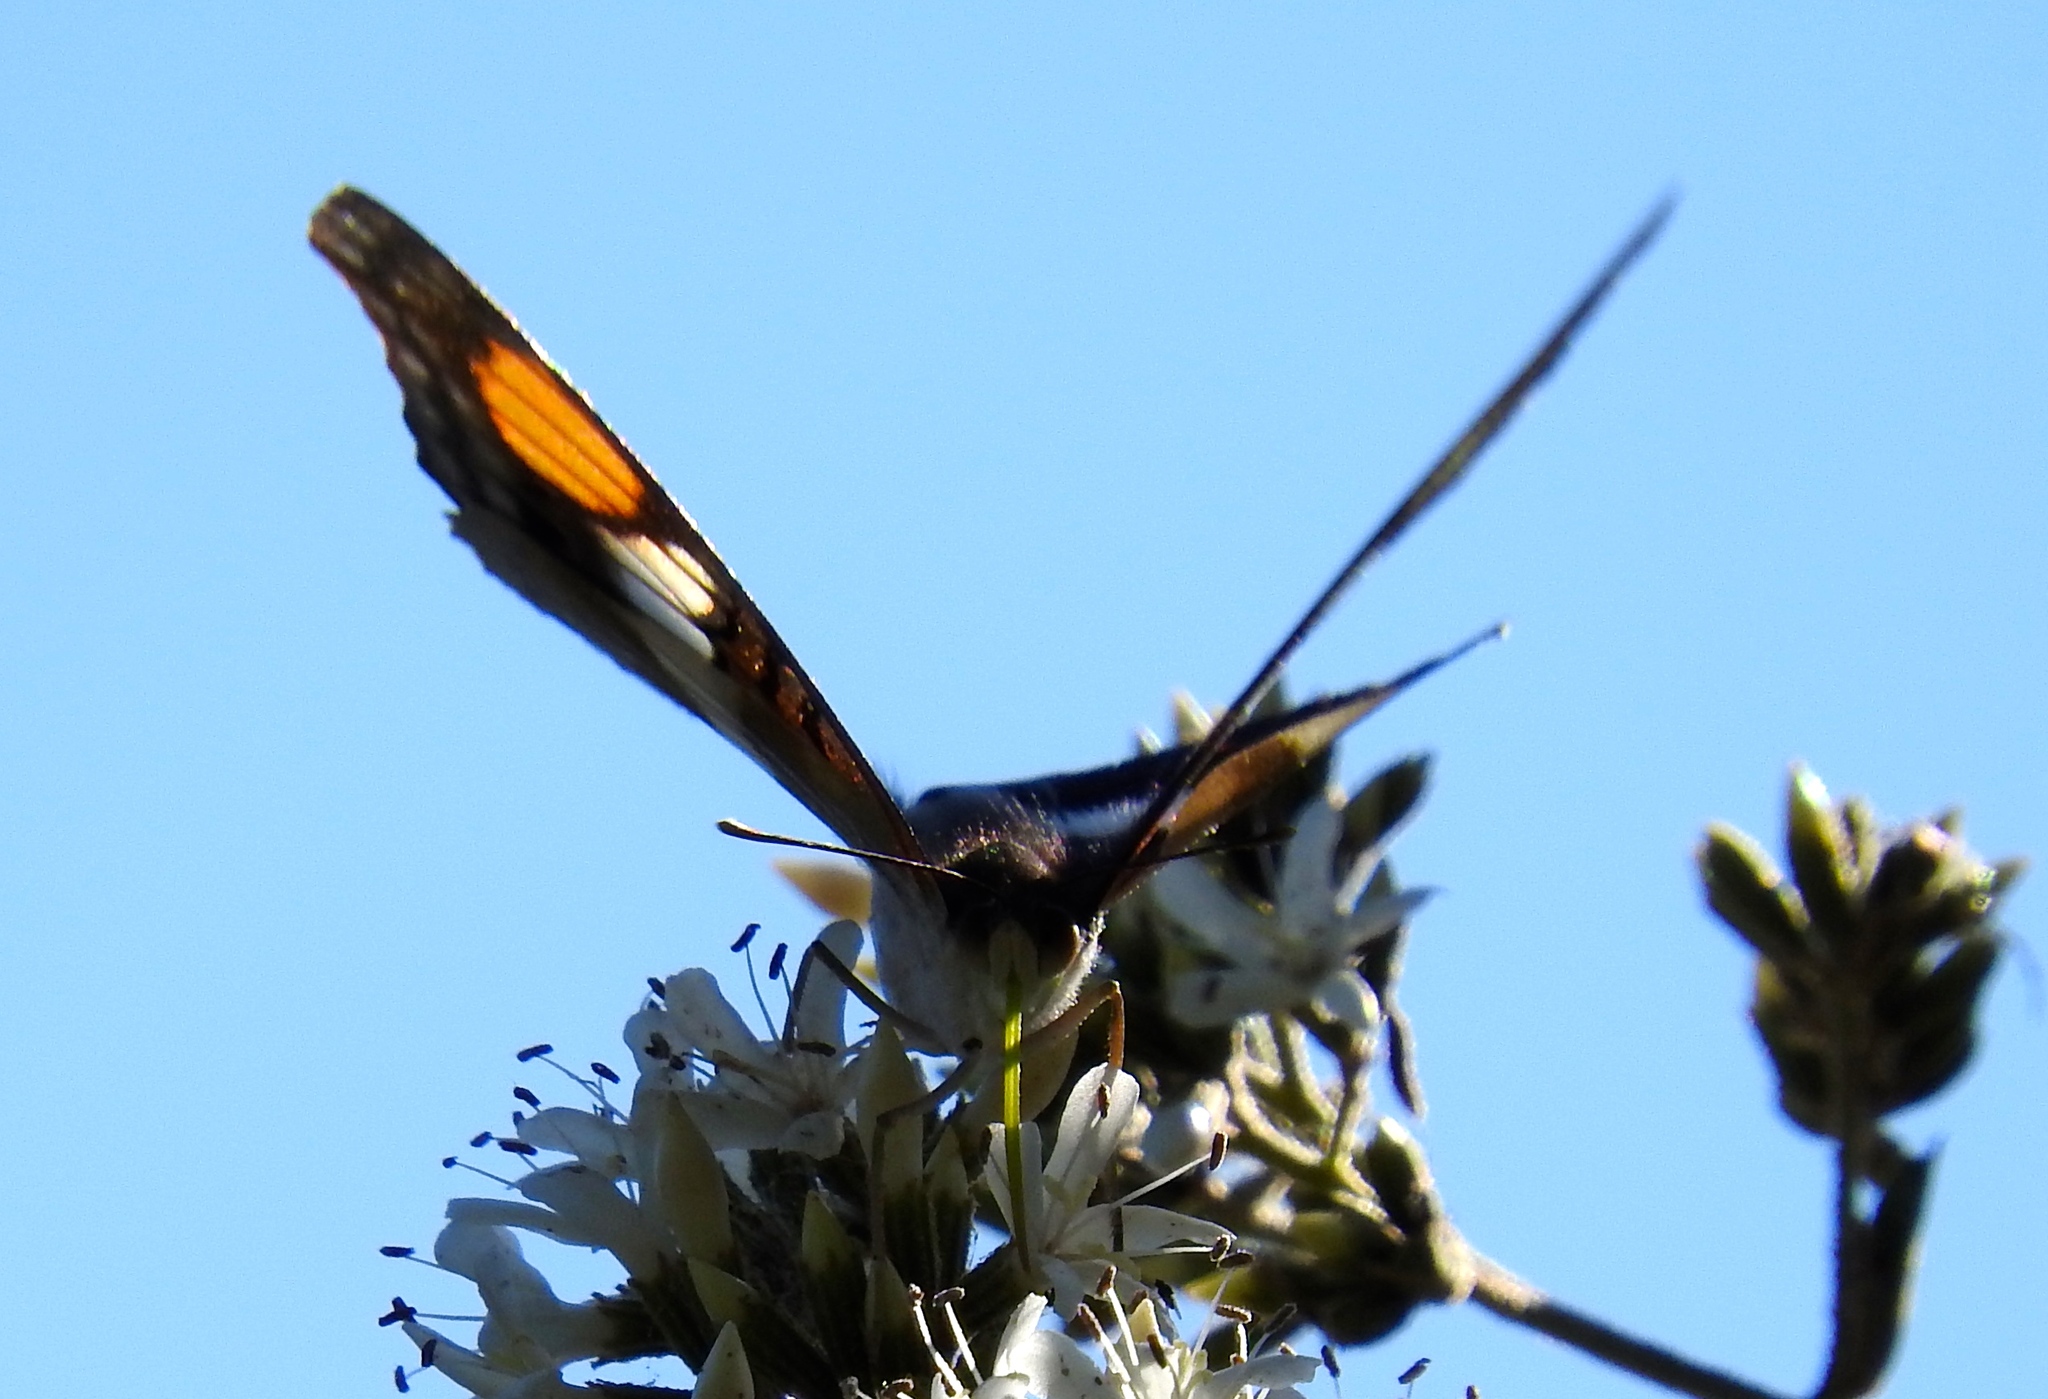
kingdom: Animalia
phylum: Arthropoda
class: Insecta
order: Lepidoptera
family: Nymphalidae
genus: Doxocopa
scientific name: Doxocopa
